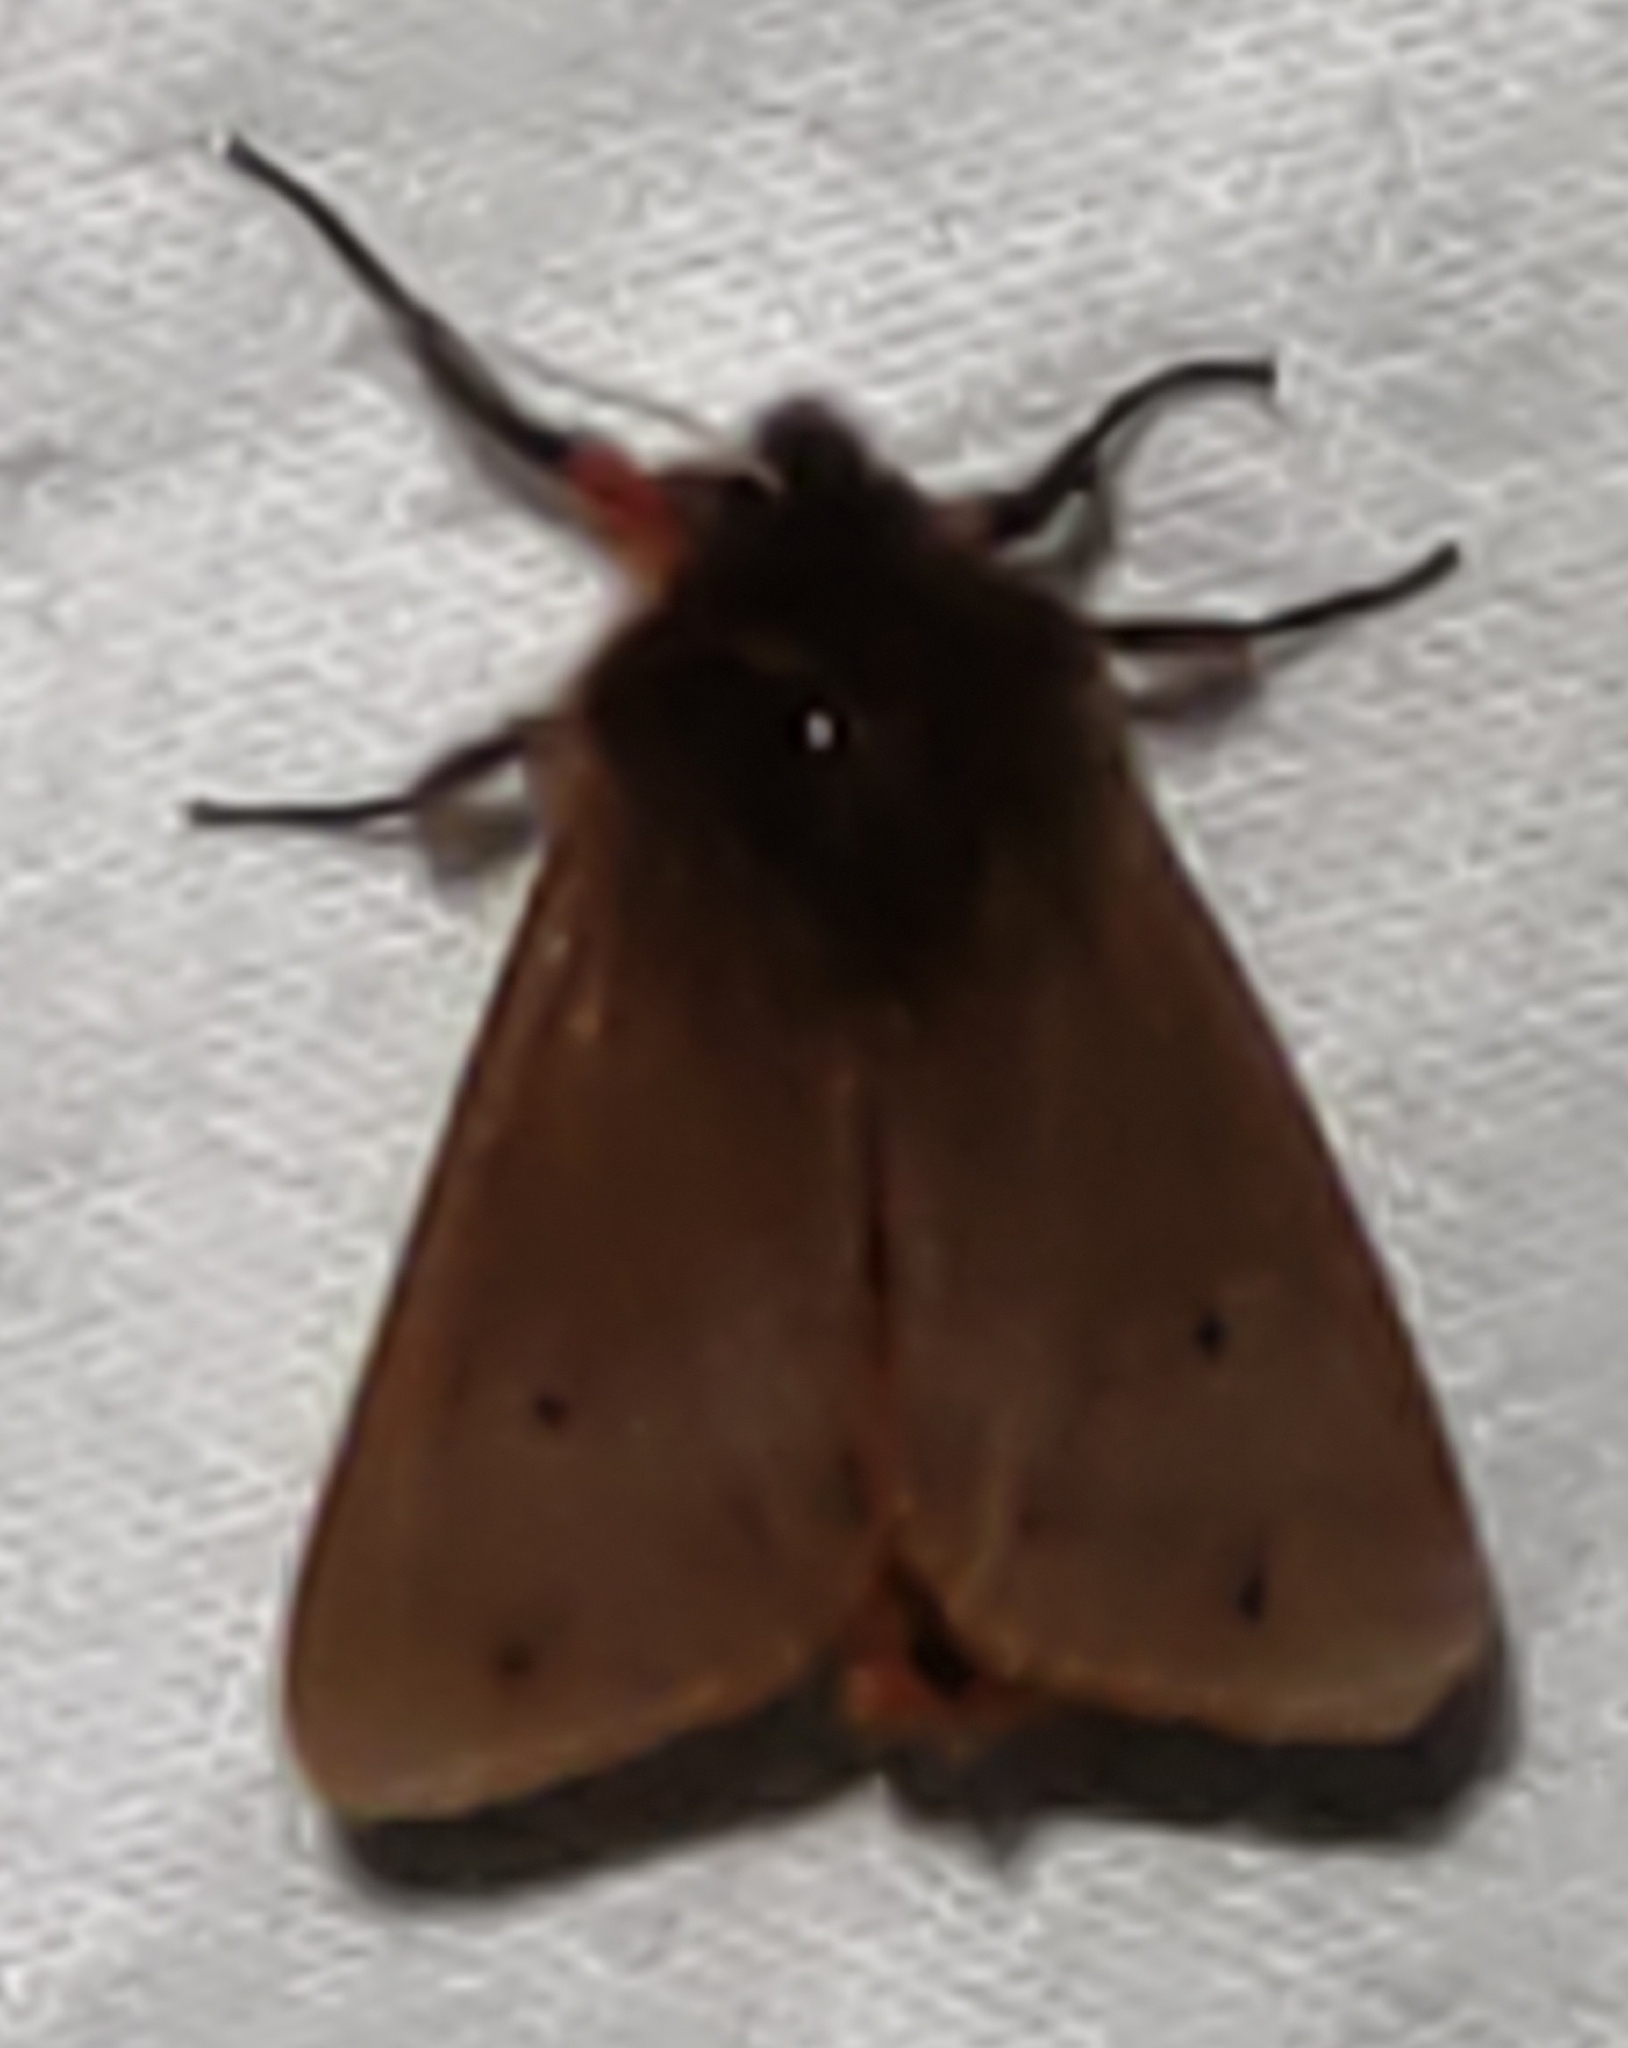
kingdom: Animalia
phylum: Arthropoda
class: Insecta
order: Lepidoptera
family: Erebidae
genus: Phragmatobia
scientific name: Phragmatobia fuliginosa
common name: Ruby tiger
